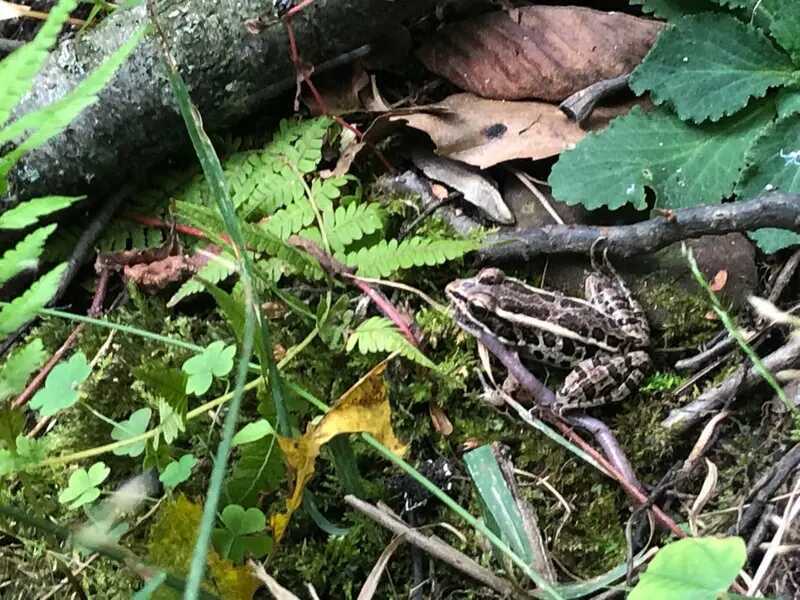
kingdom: Animalia
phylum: Chordata
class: Amphibia
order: Anura
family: Ranidae
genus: Lithobates
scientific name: Lithobates palustris
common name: Pickerel frog
